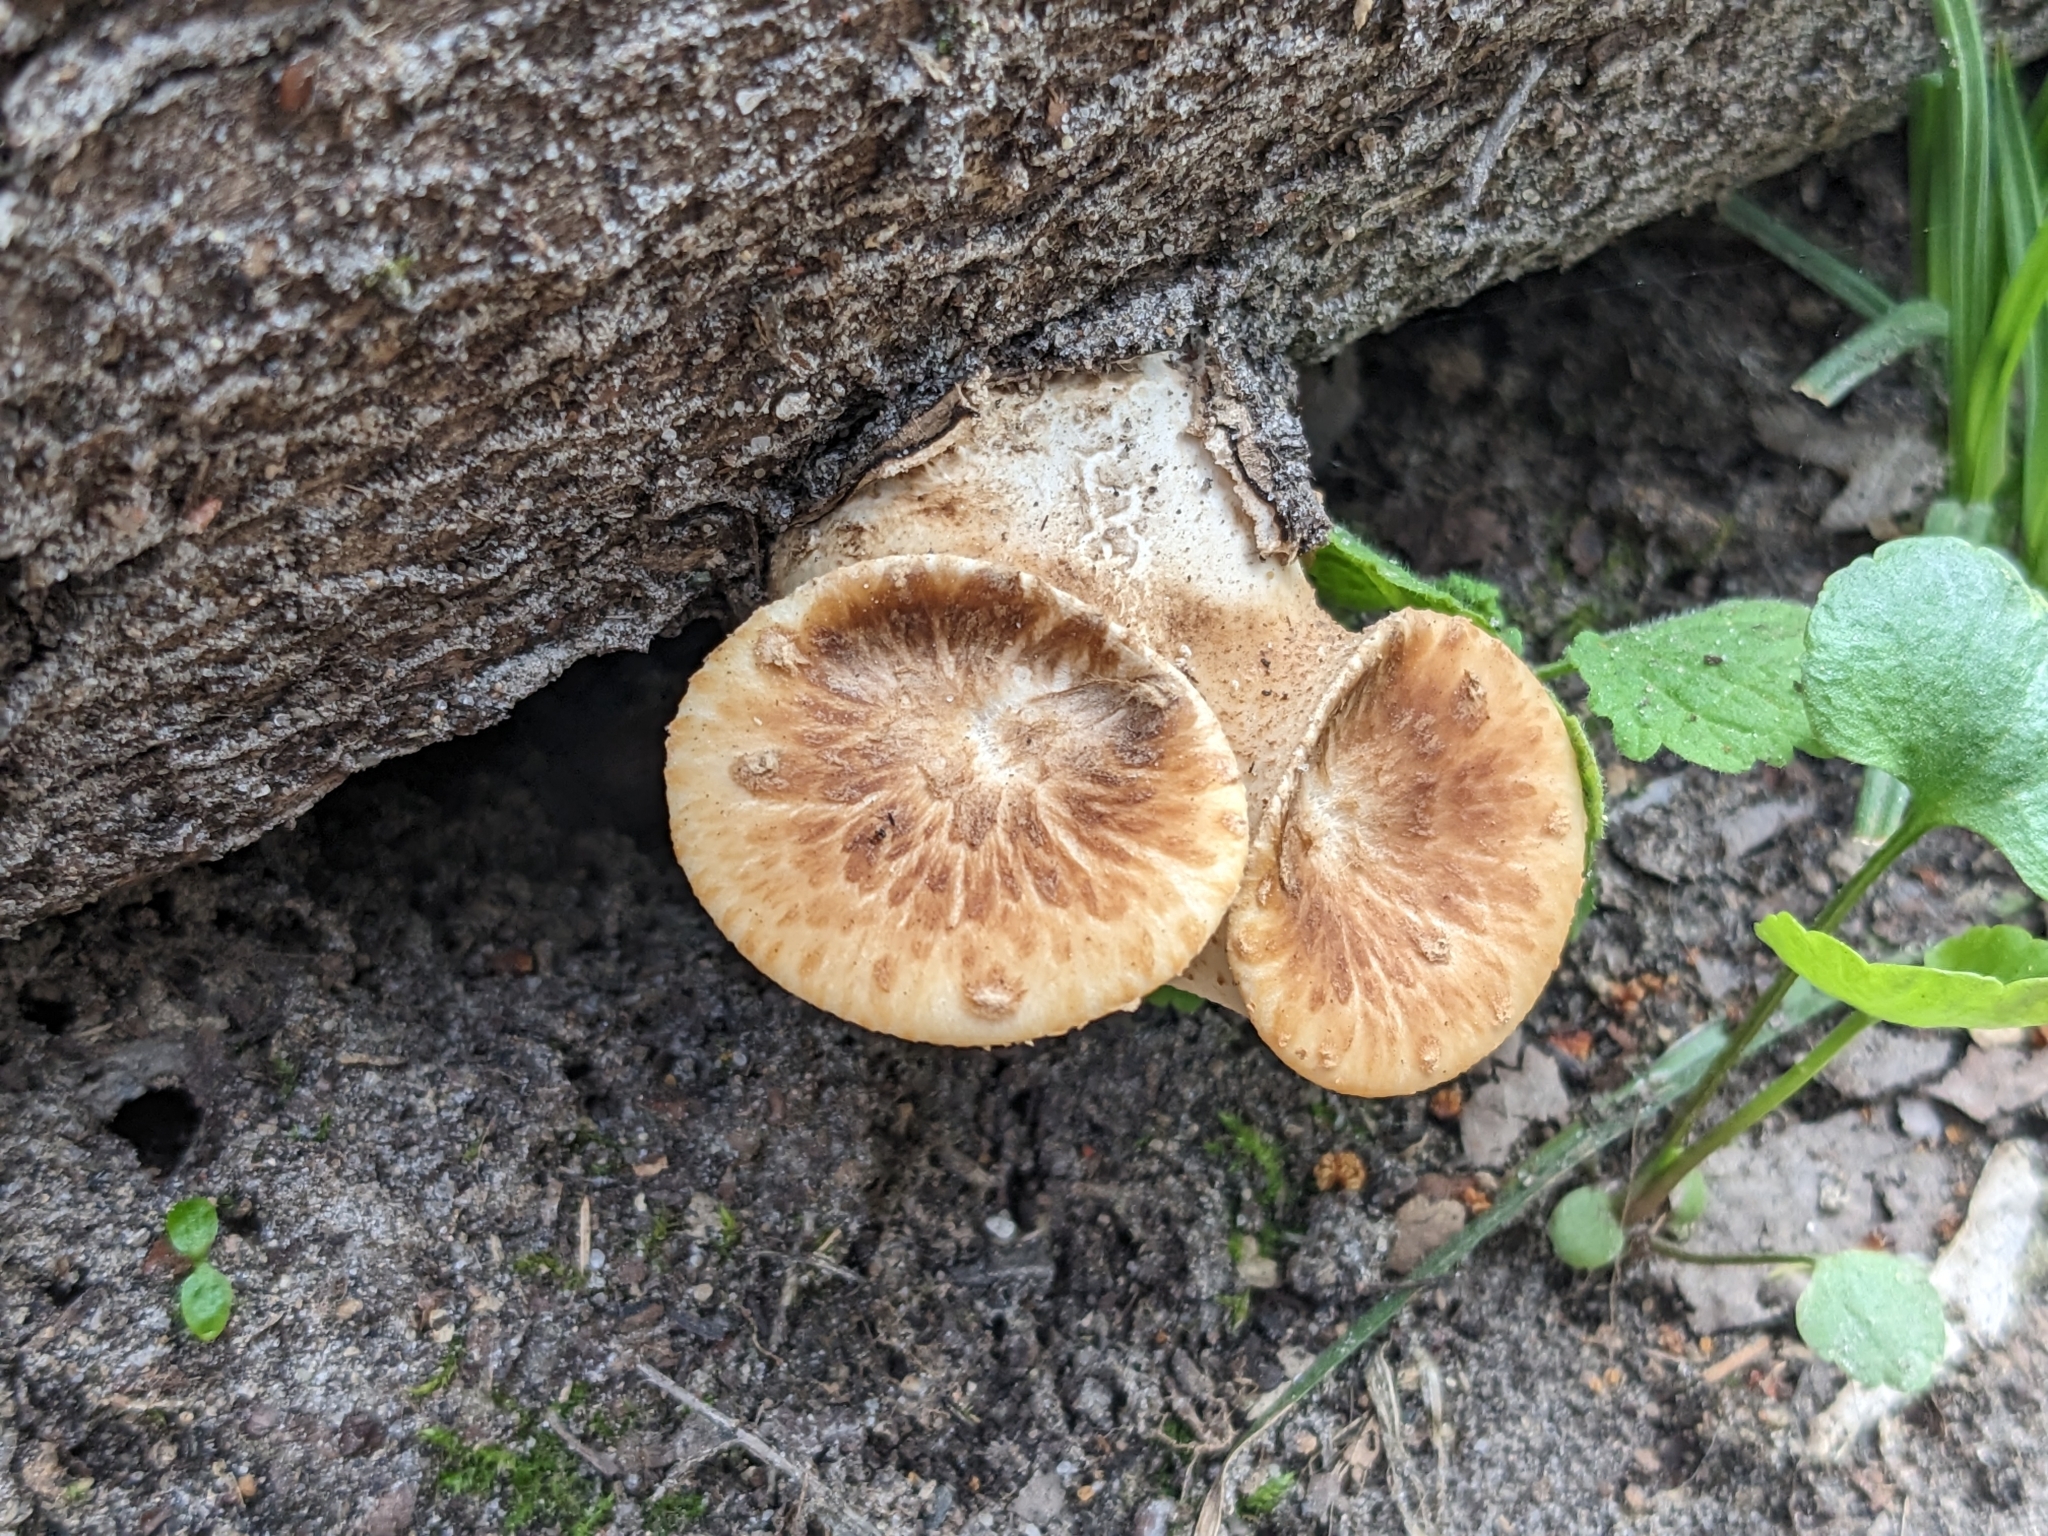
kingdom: Fungi
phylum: Basidiomycota
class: Agaricomycetes
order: Polyporales
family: Polyporaceae
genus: Cerioporus
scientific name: Cerioporus squamosus
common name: Dryad's saddle
